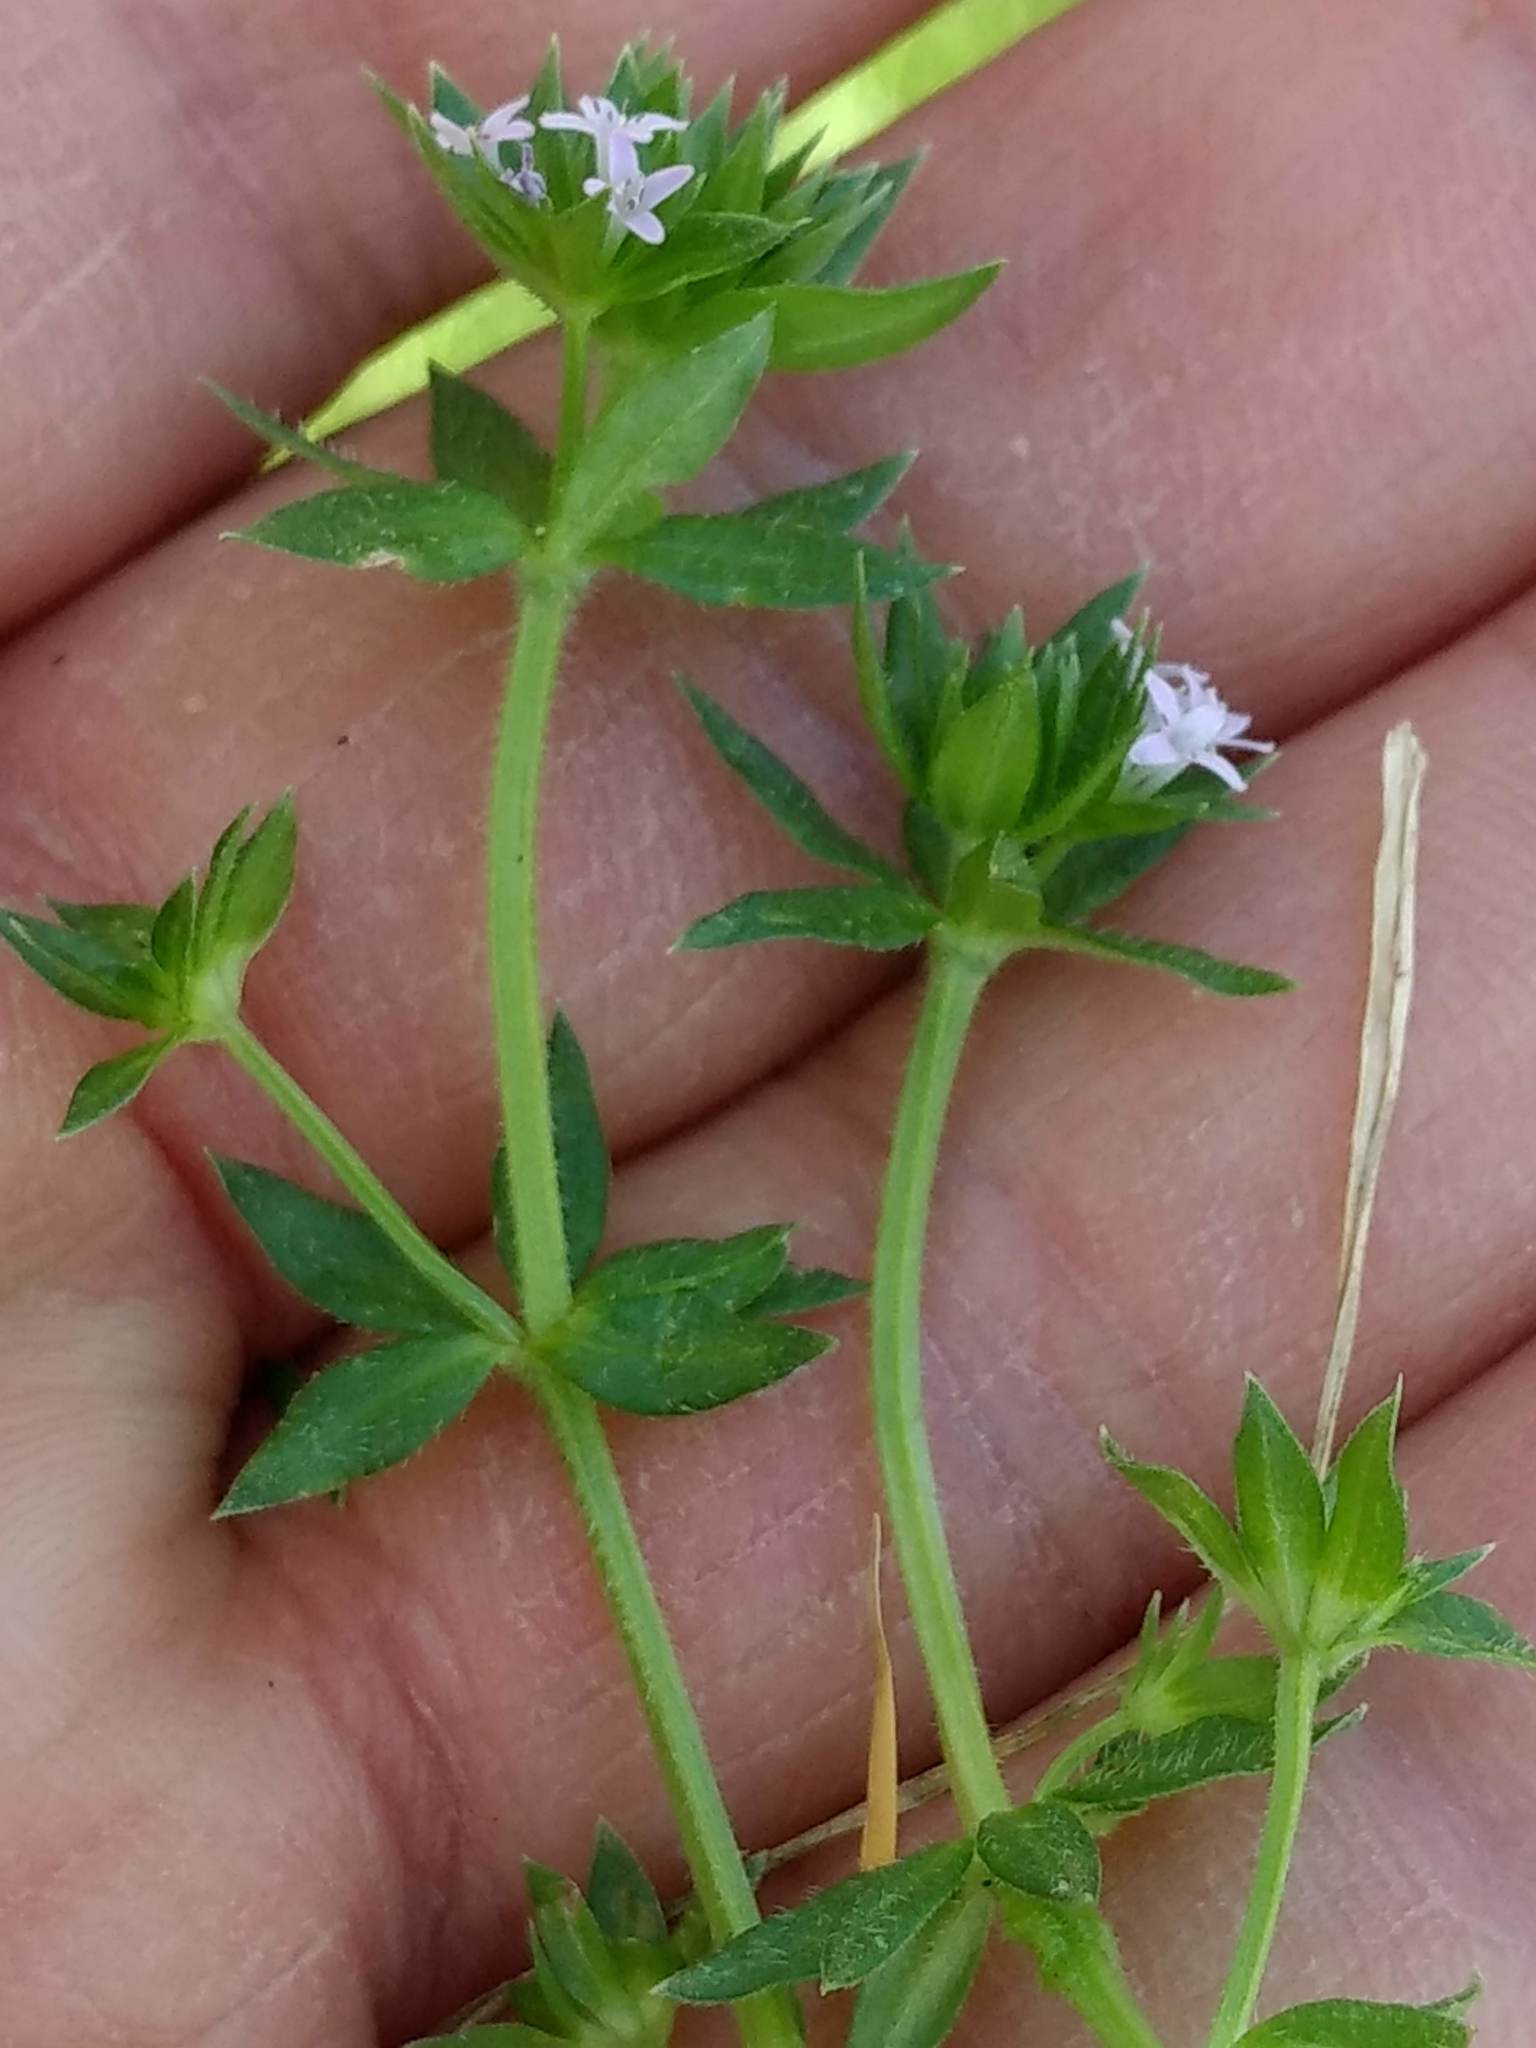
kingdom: Plantae
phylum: Tracheophyta
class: Magnoliopsida
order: Gentianales
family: Rubiaceae
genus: Sherardia
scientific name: Sherardia arvensis
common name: Field madder
